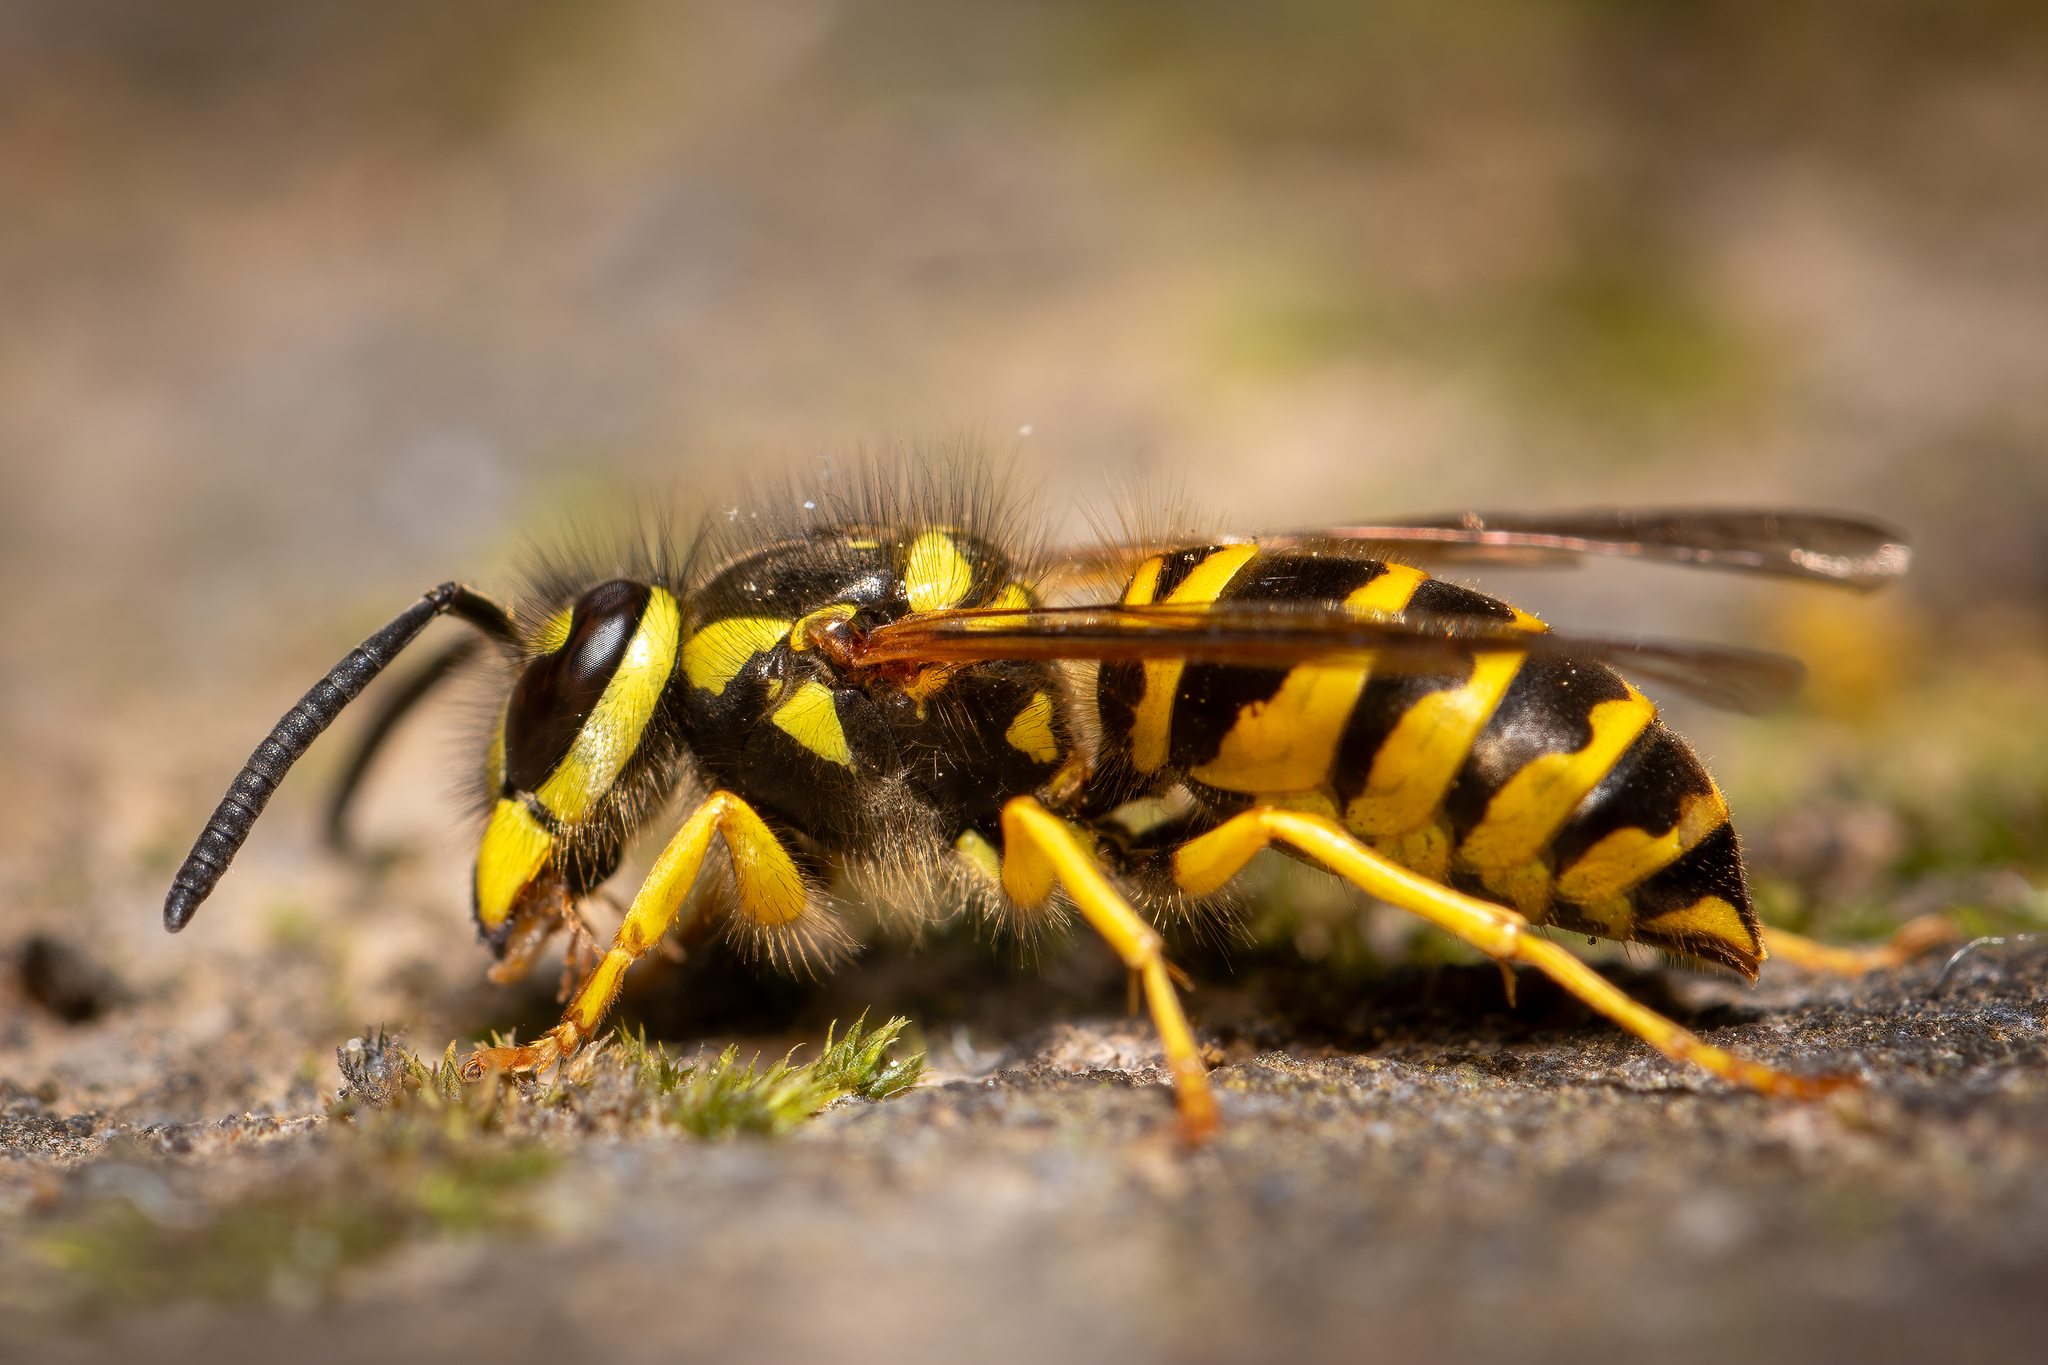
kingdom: Animalia
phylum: Arthropoda
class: Insecta
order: Hymenoptera
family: Vespidae
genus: Vespula
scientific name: Vespula maculifrons
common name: Eastern yellowjacket
